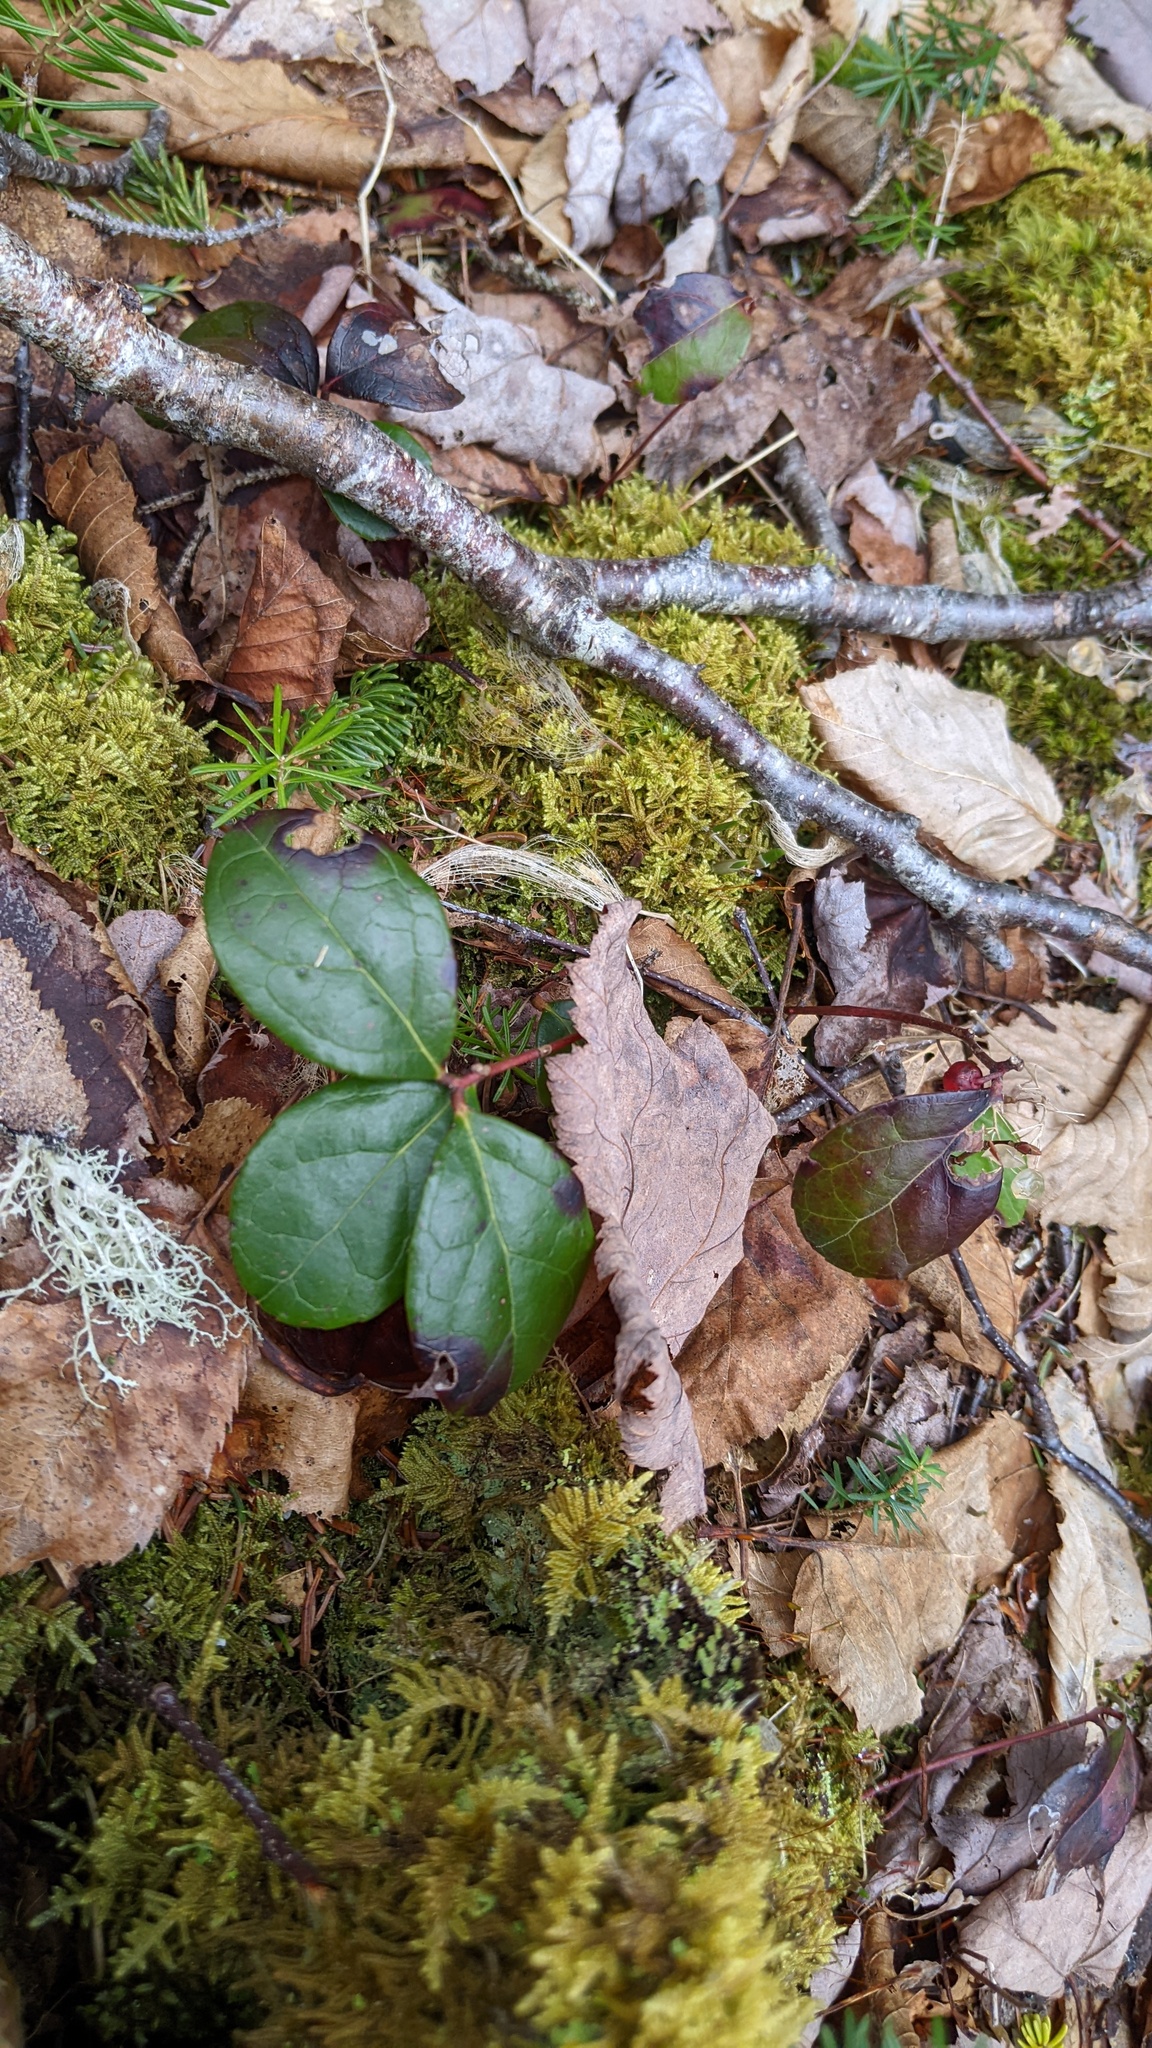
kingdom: Plantae
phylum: Tracheophyta
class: Magnoliopsida
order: Ericales
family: Ericaceae
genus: Gaultheria
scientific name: Gaultheria procumbens
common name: Checkerberry
